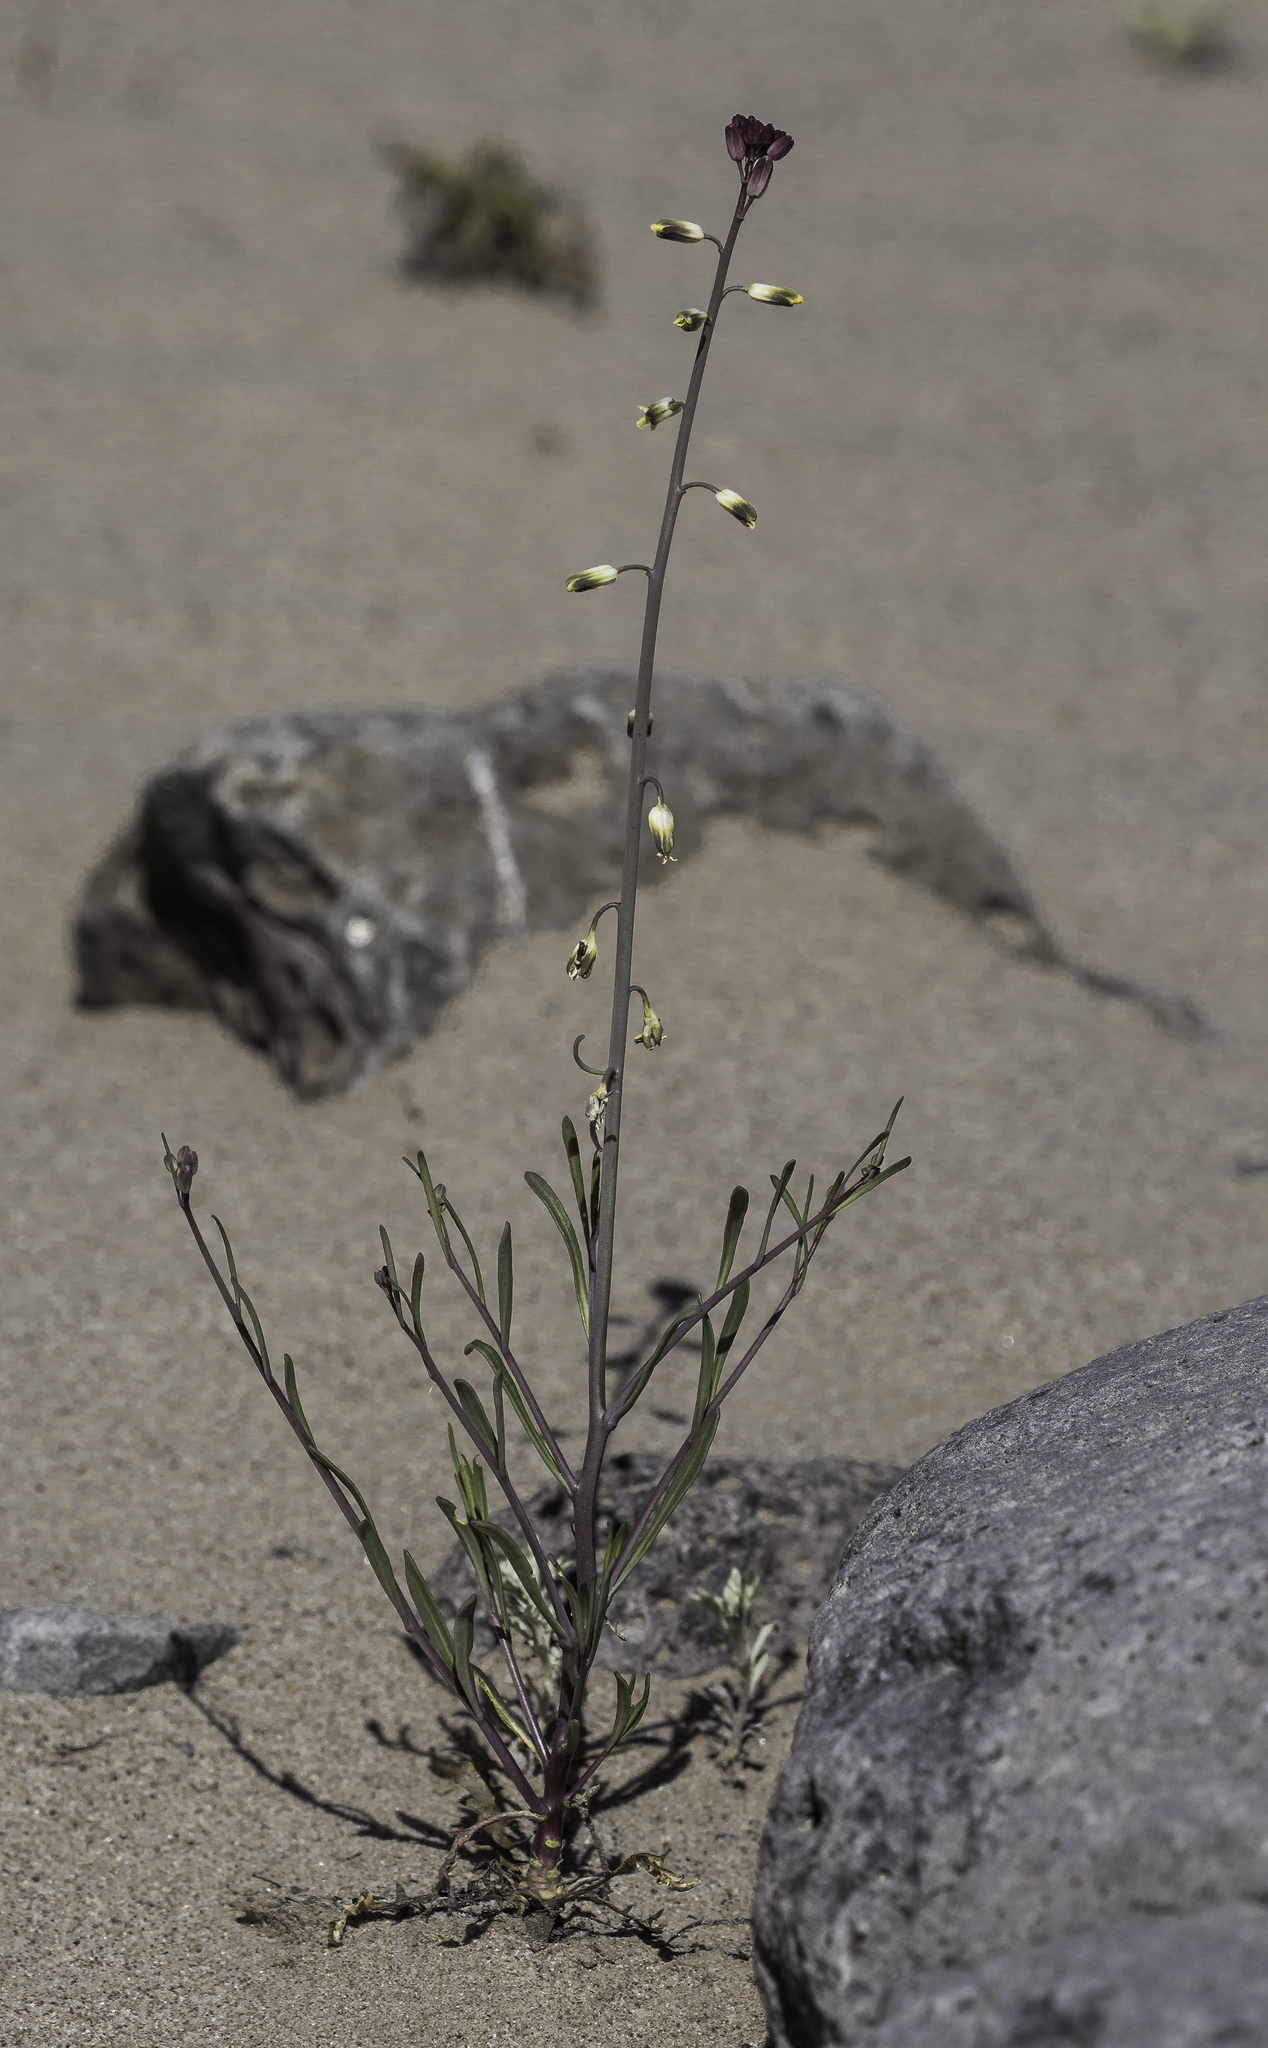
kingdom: Plantae
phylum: Tracheophyta
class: Magnoliopsida
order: Brassicales
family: Brassicaceae
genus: Streptanthus
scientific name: Streptanthus longirostris
